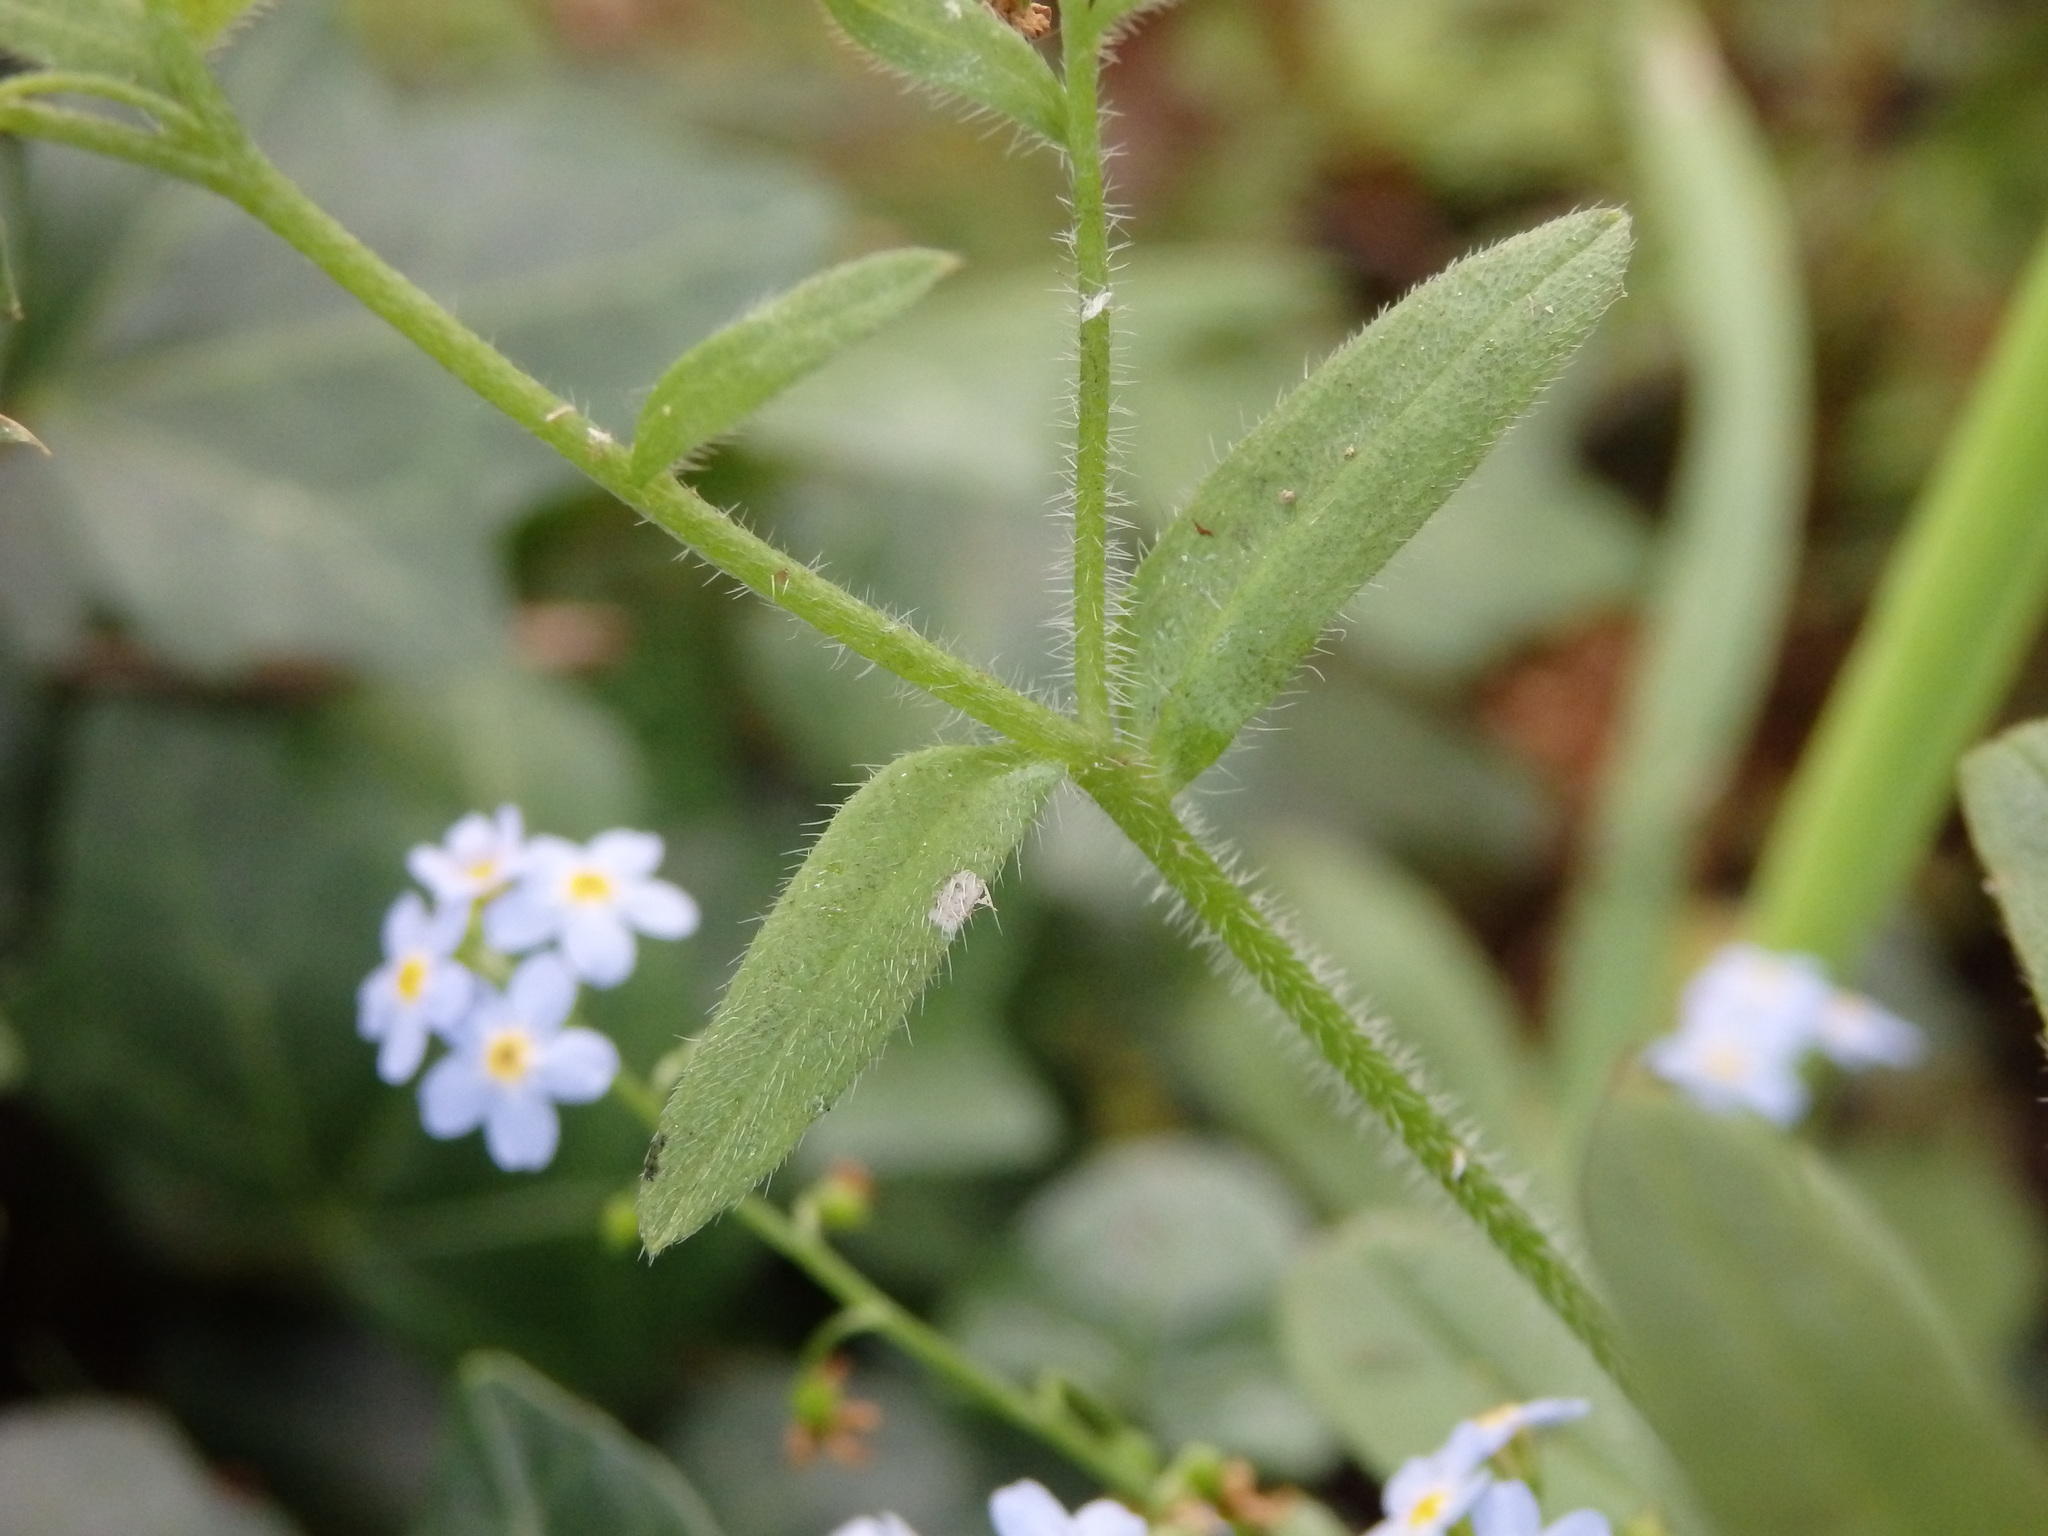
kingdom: Plantae
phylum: Tracheophyta
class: Magnoliopsida
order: Boraginales
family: Boraginaceae
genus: Myosotis
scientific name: Myosotis laxa
